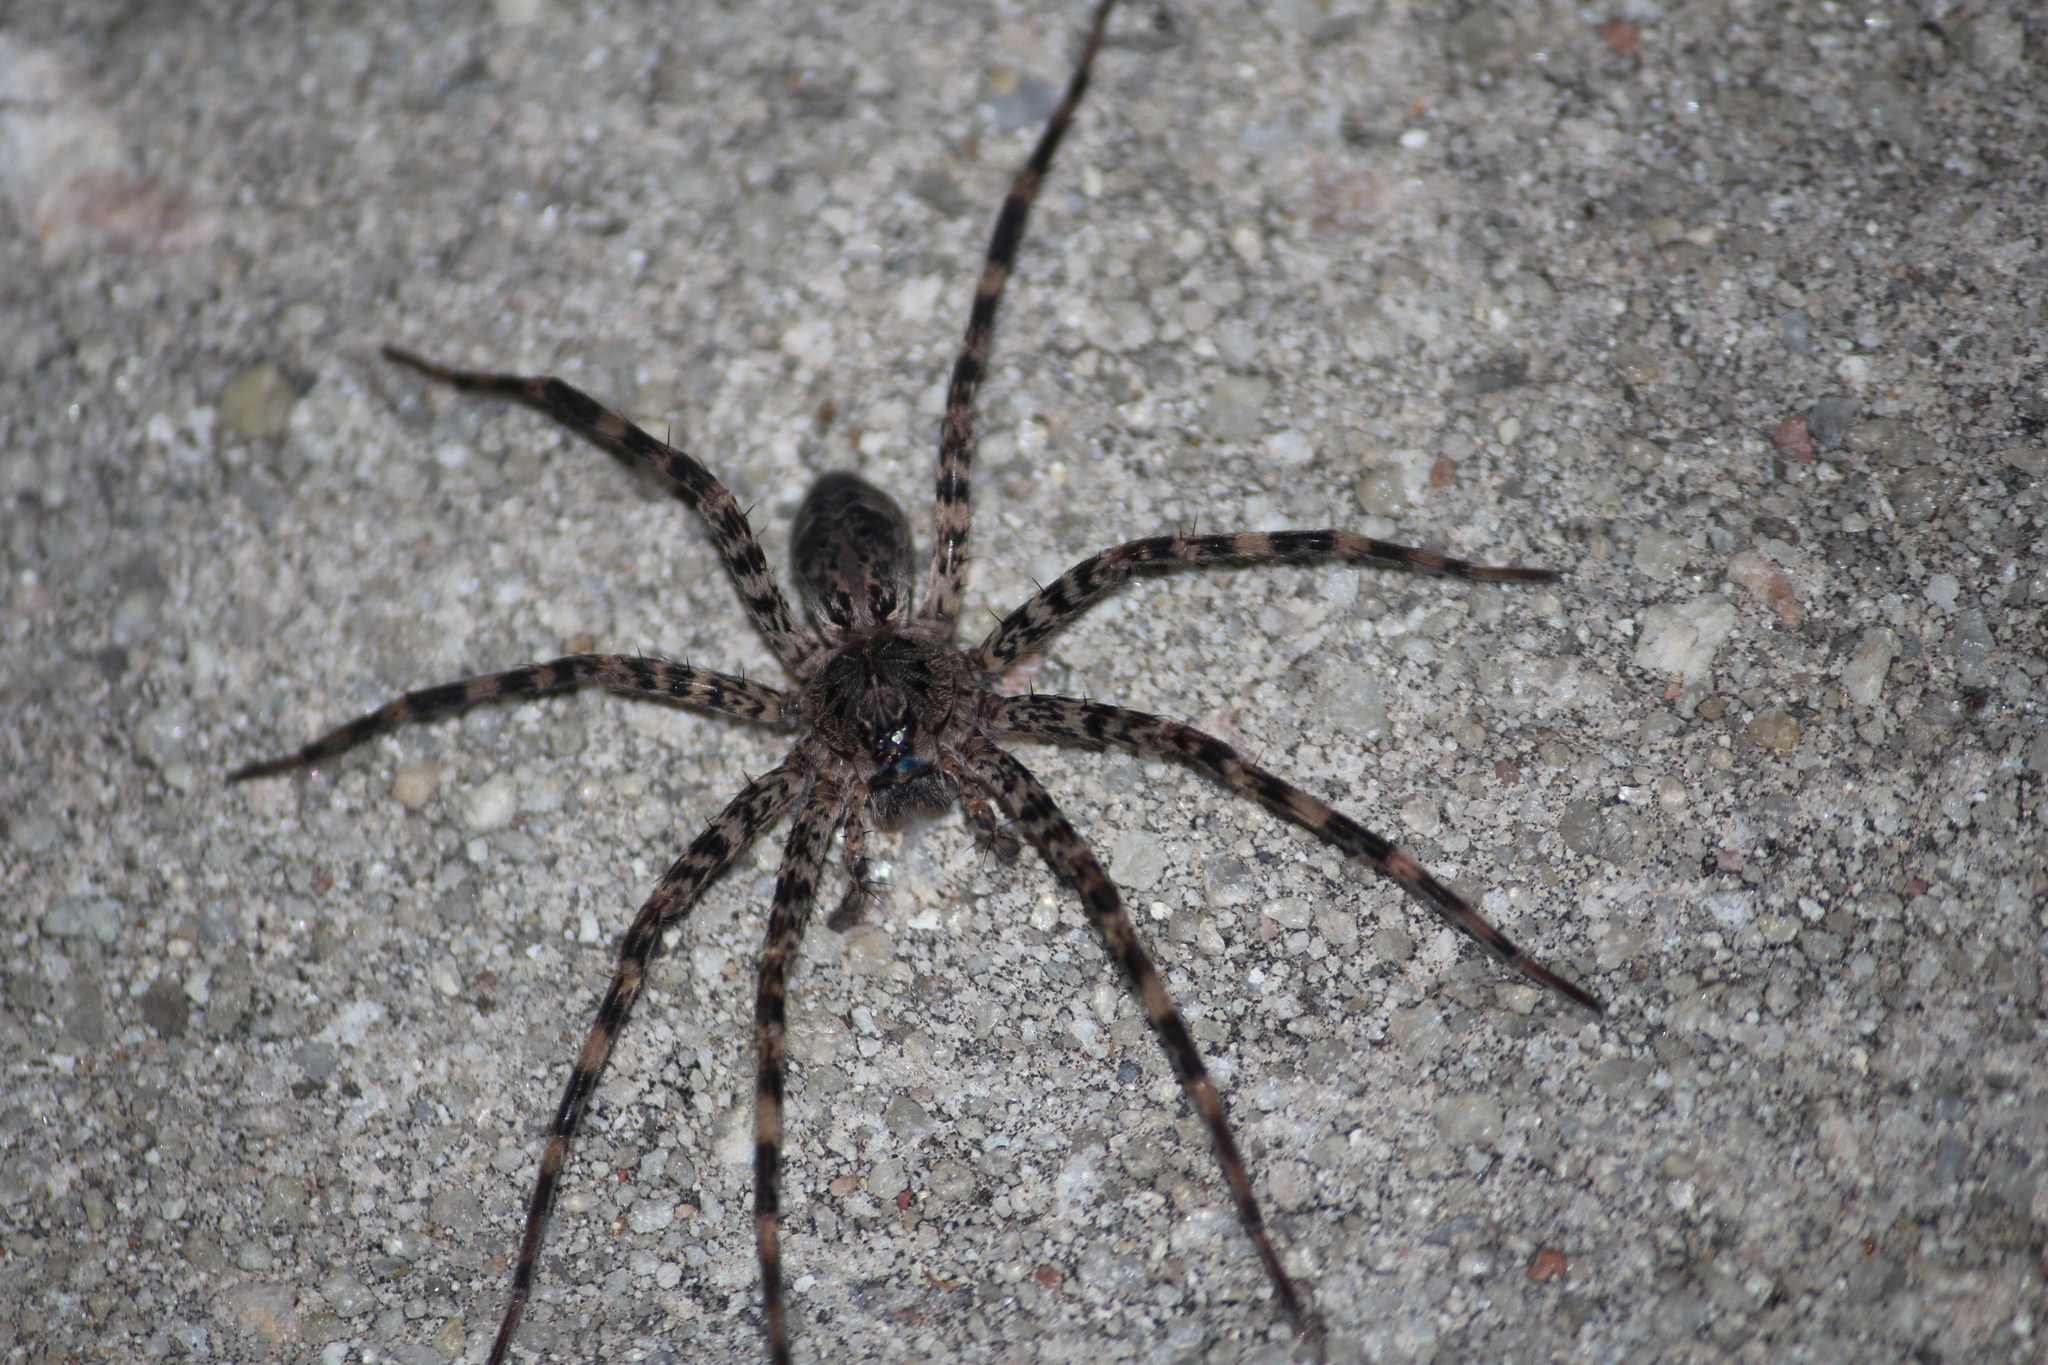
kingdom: Animalia
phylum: Arthropoda
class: Arachnida
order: Araneae
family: Pisauridae
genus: Dolomedes
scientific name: Dolomedes tenebrosus
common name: Dark fishing spider
